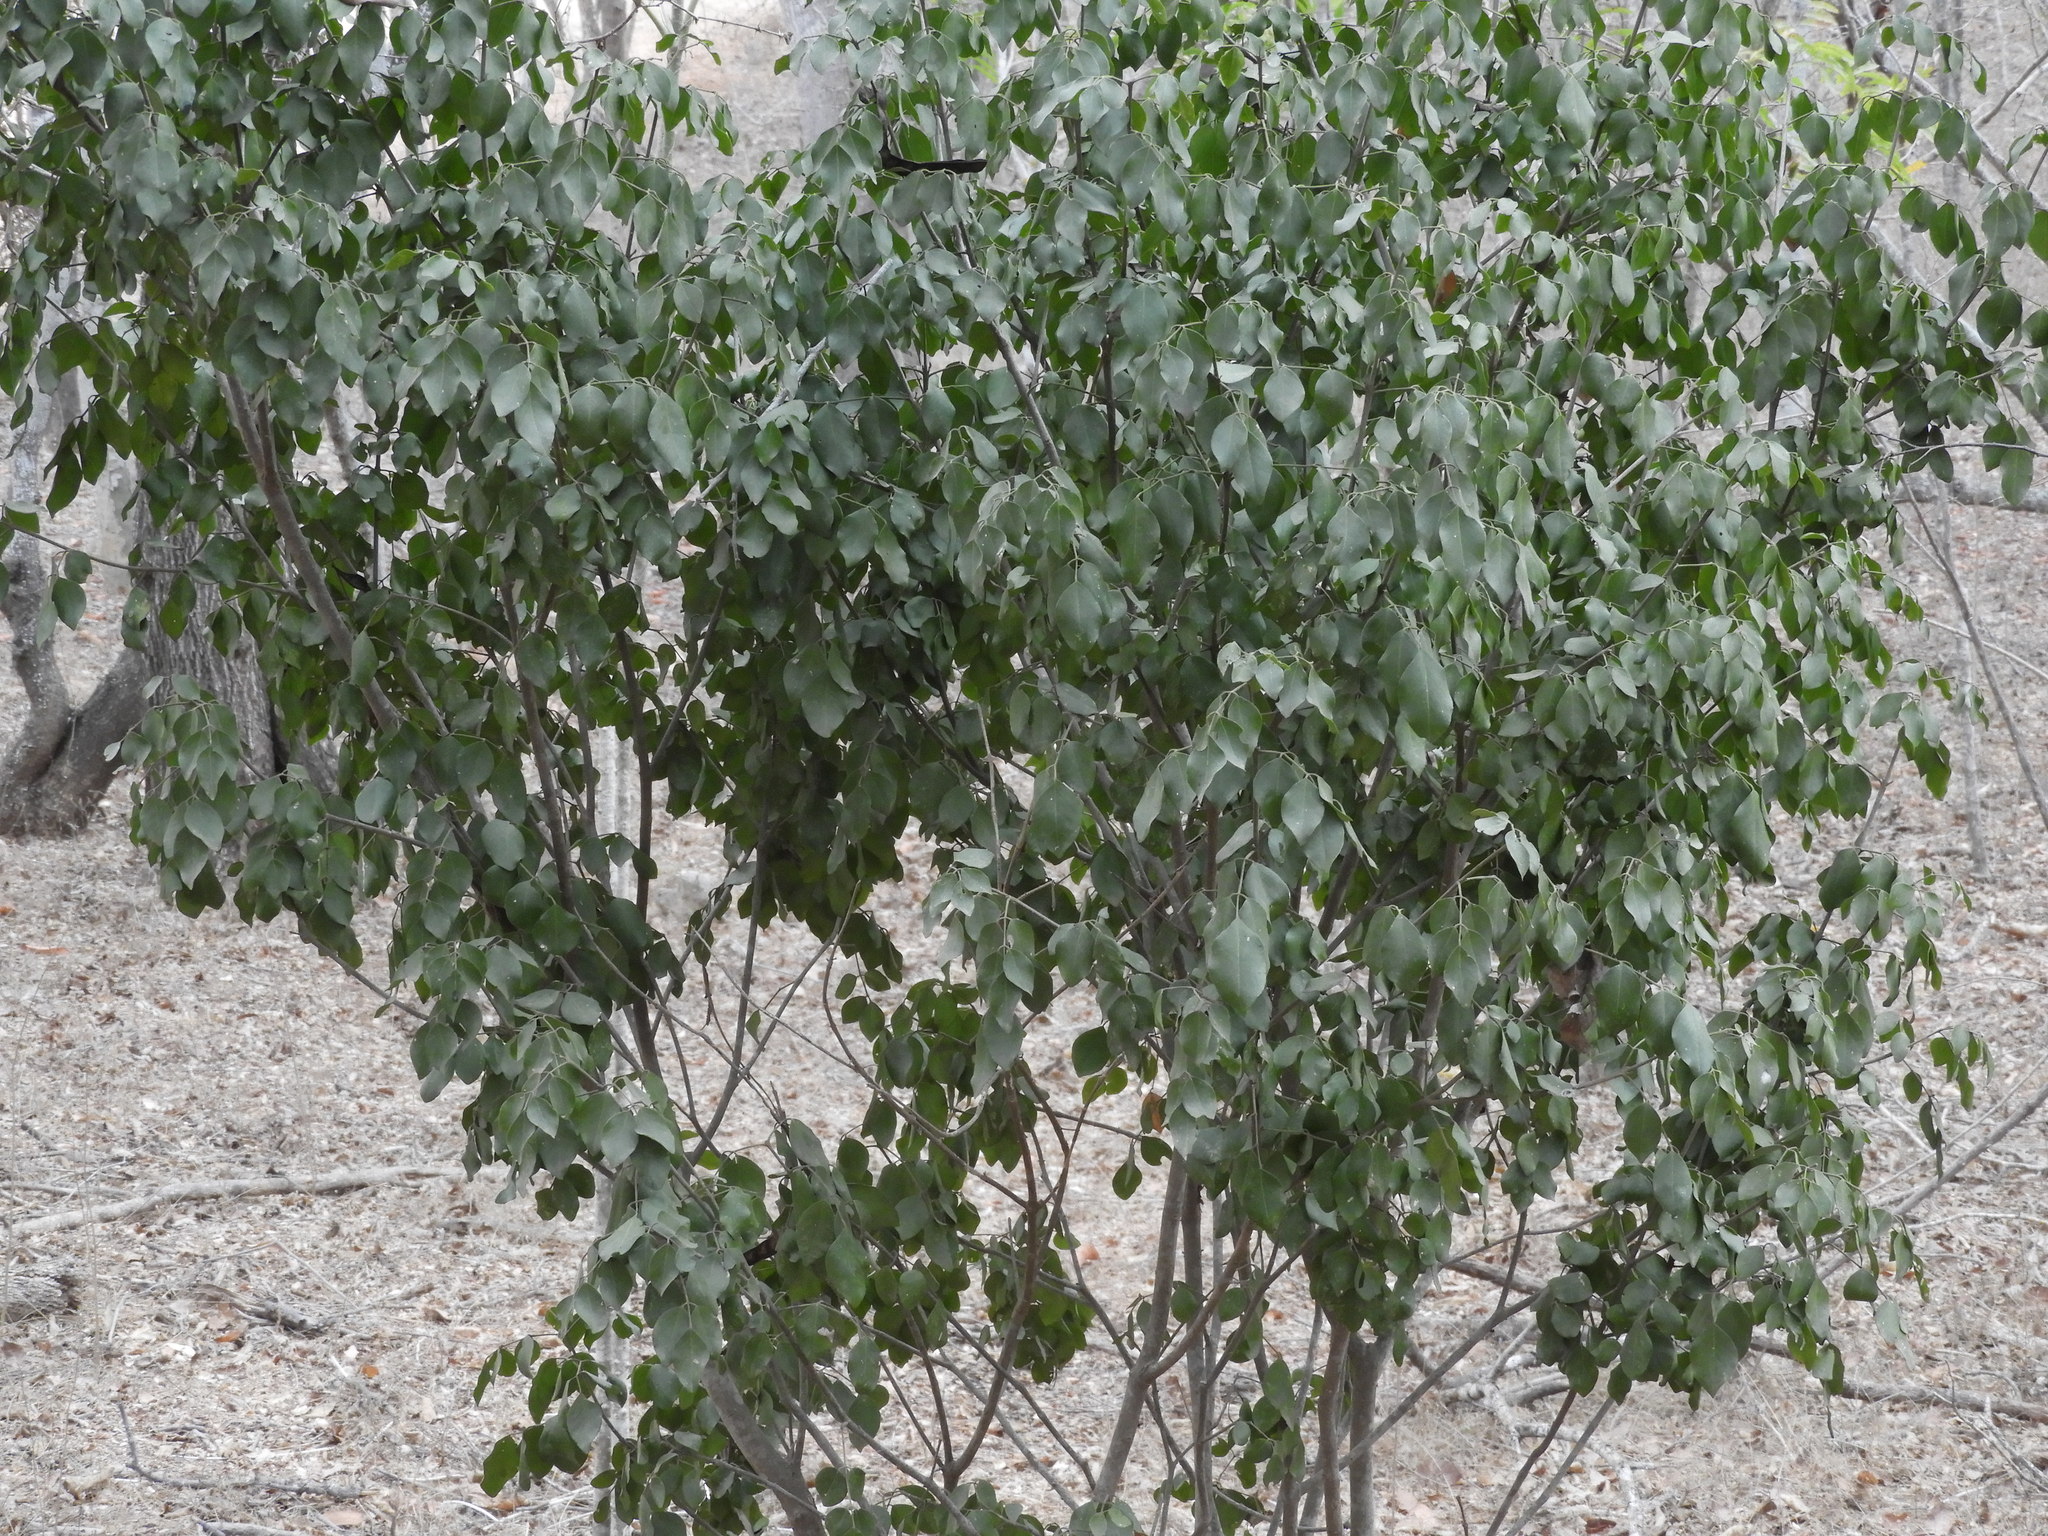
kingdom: Plantae
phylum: Tracheophyta
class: Magnoliopsida
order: Sapindales
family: Rutaceae
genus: Amyris
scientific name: Amyris balsamifera
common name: Balsam amyris
